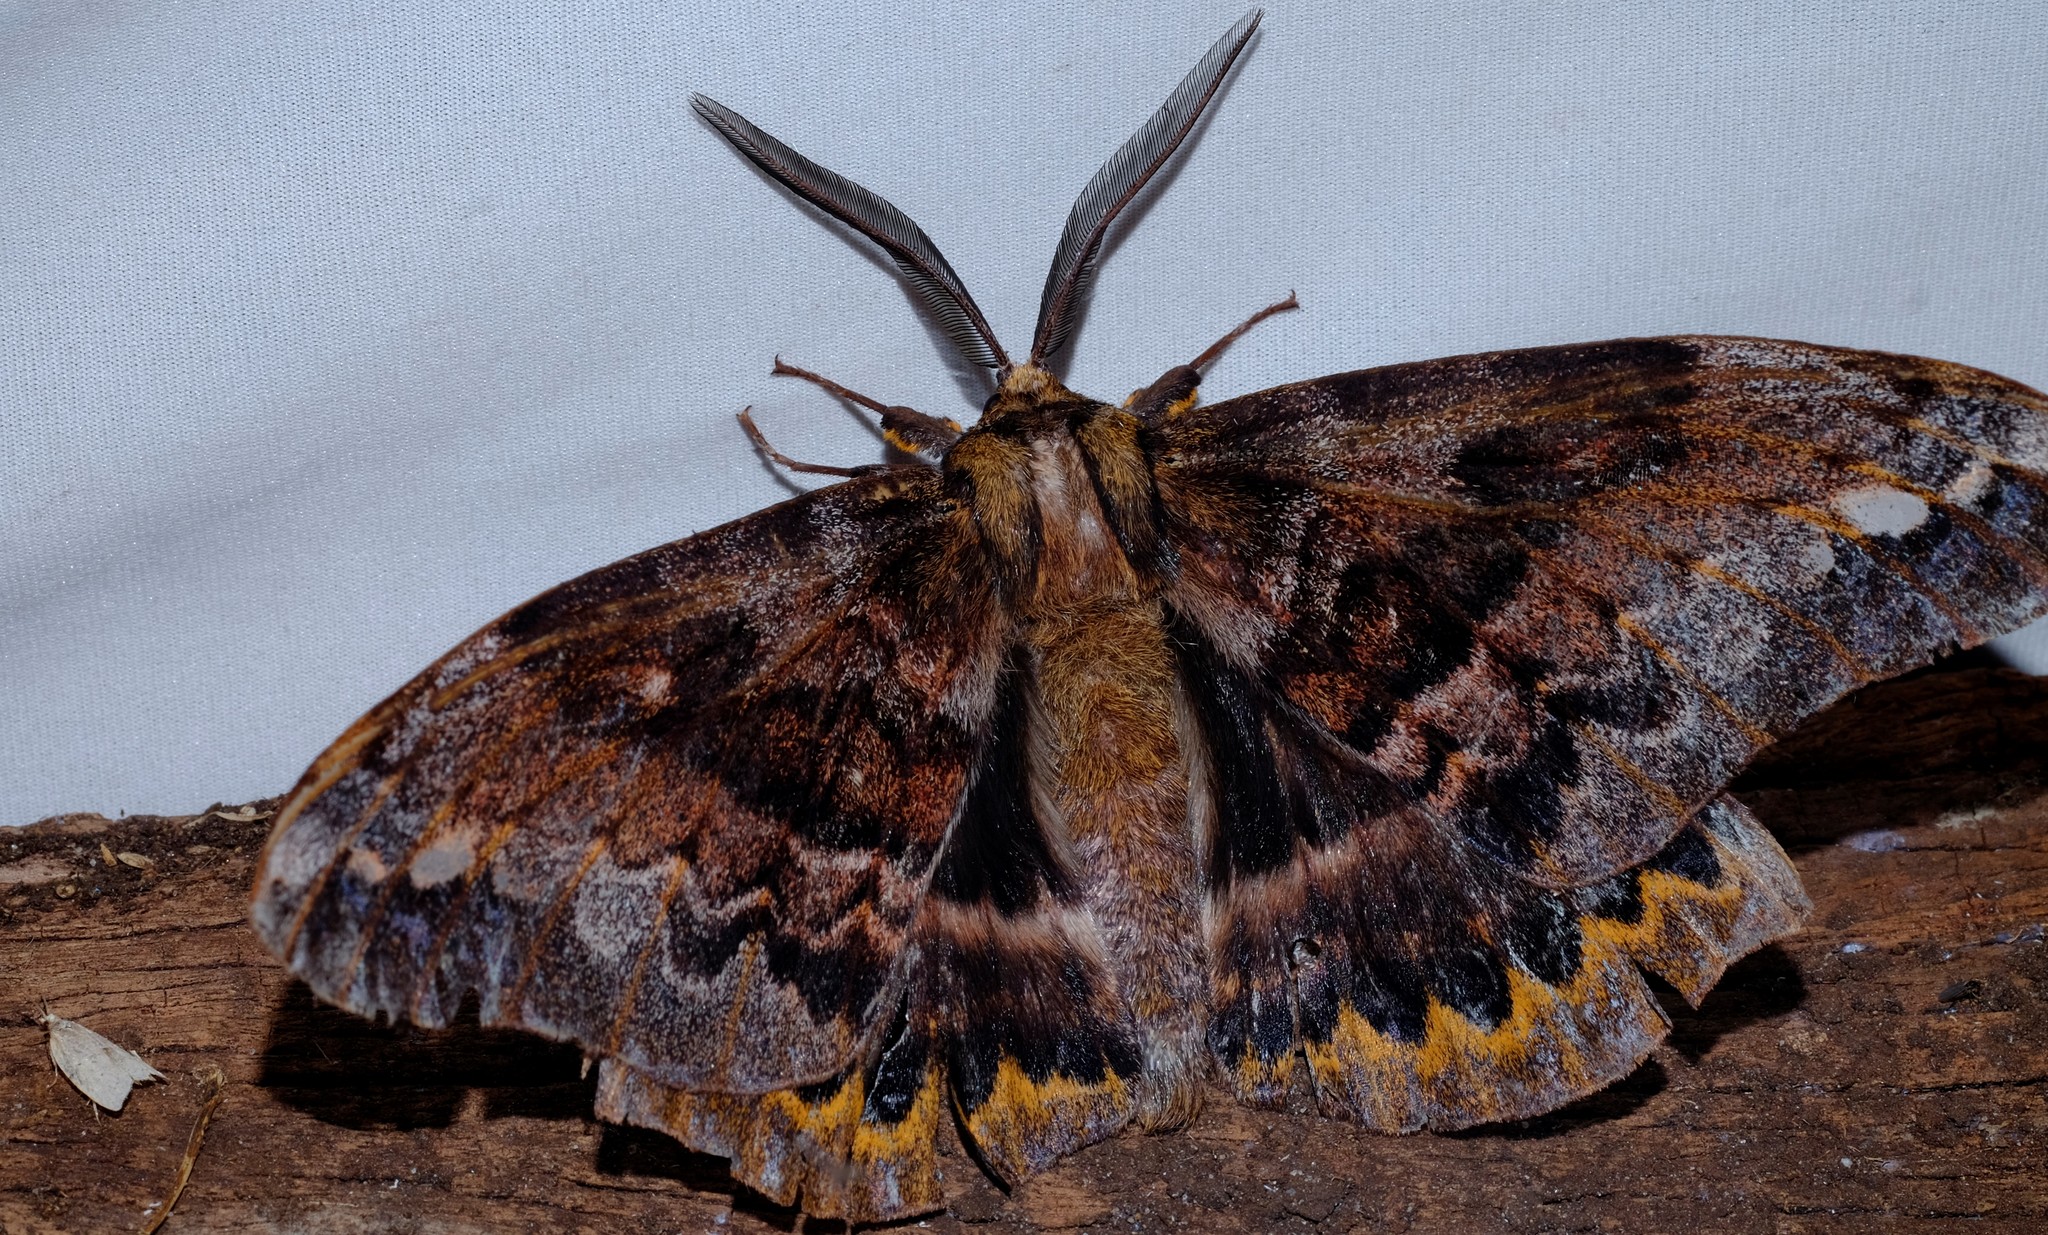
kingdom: Animalia
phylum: Arthropoda
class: Insecta
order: Lepidoptera
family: Anthelidae
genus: Chelepteryx
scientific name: Chelepteryx collesi
